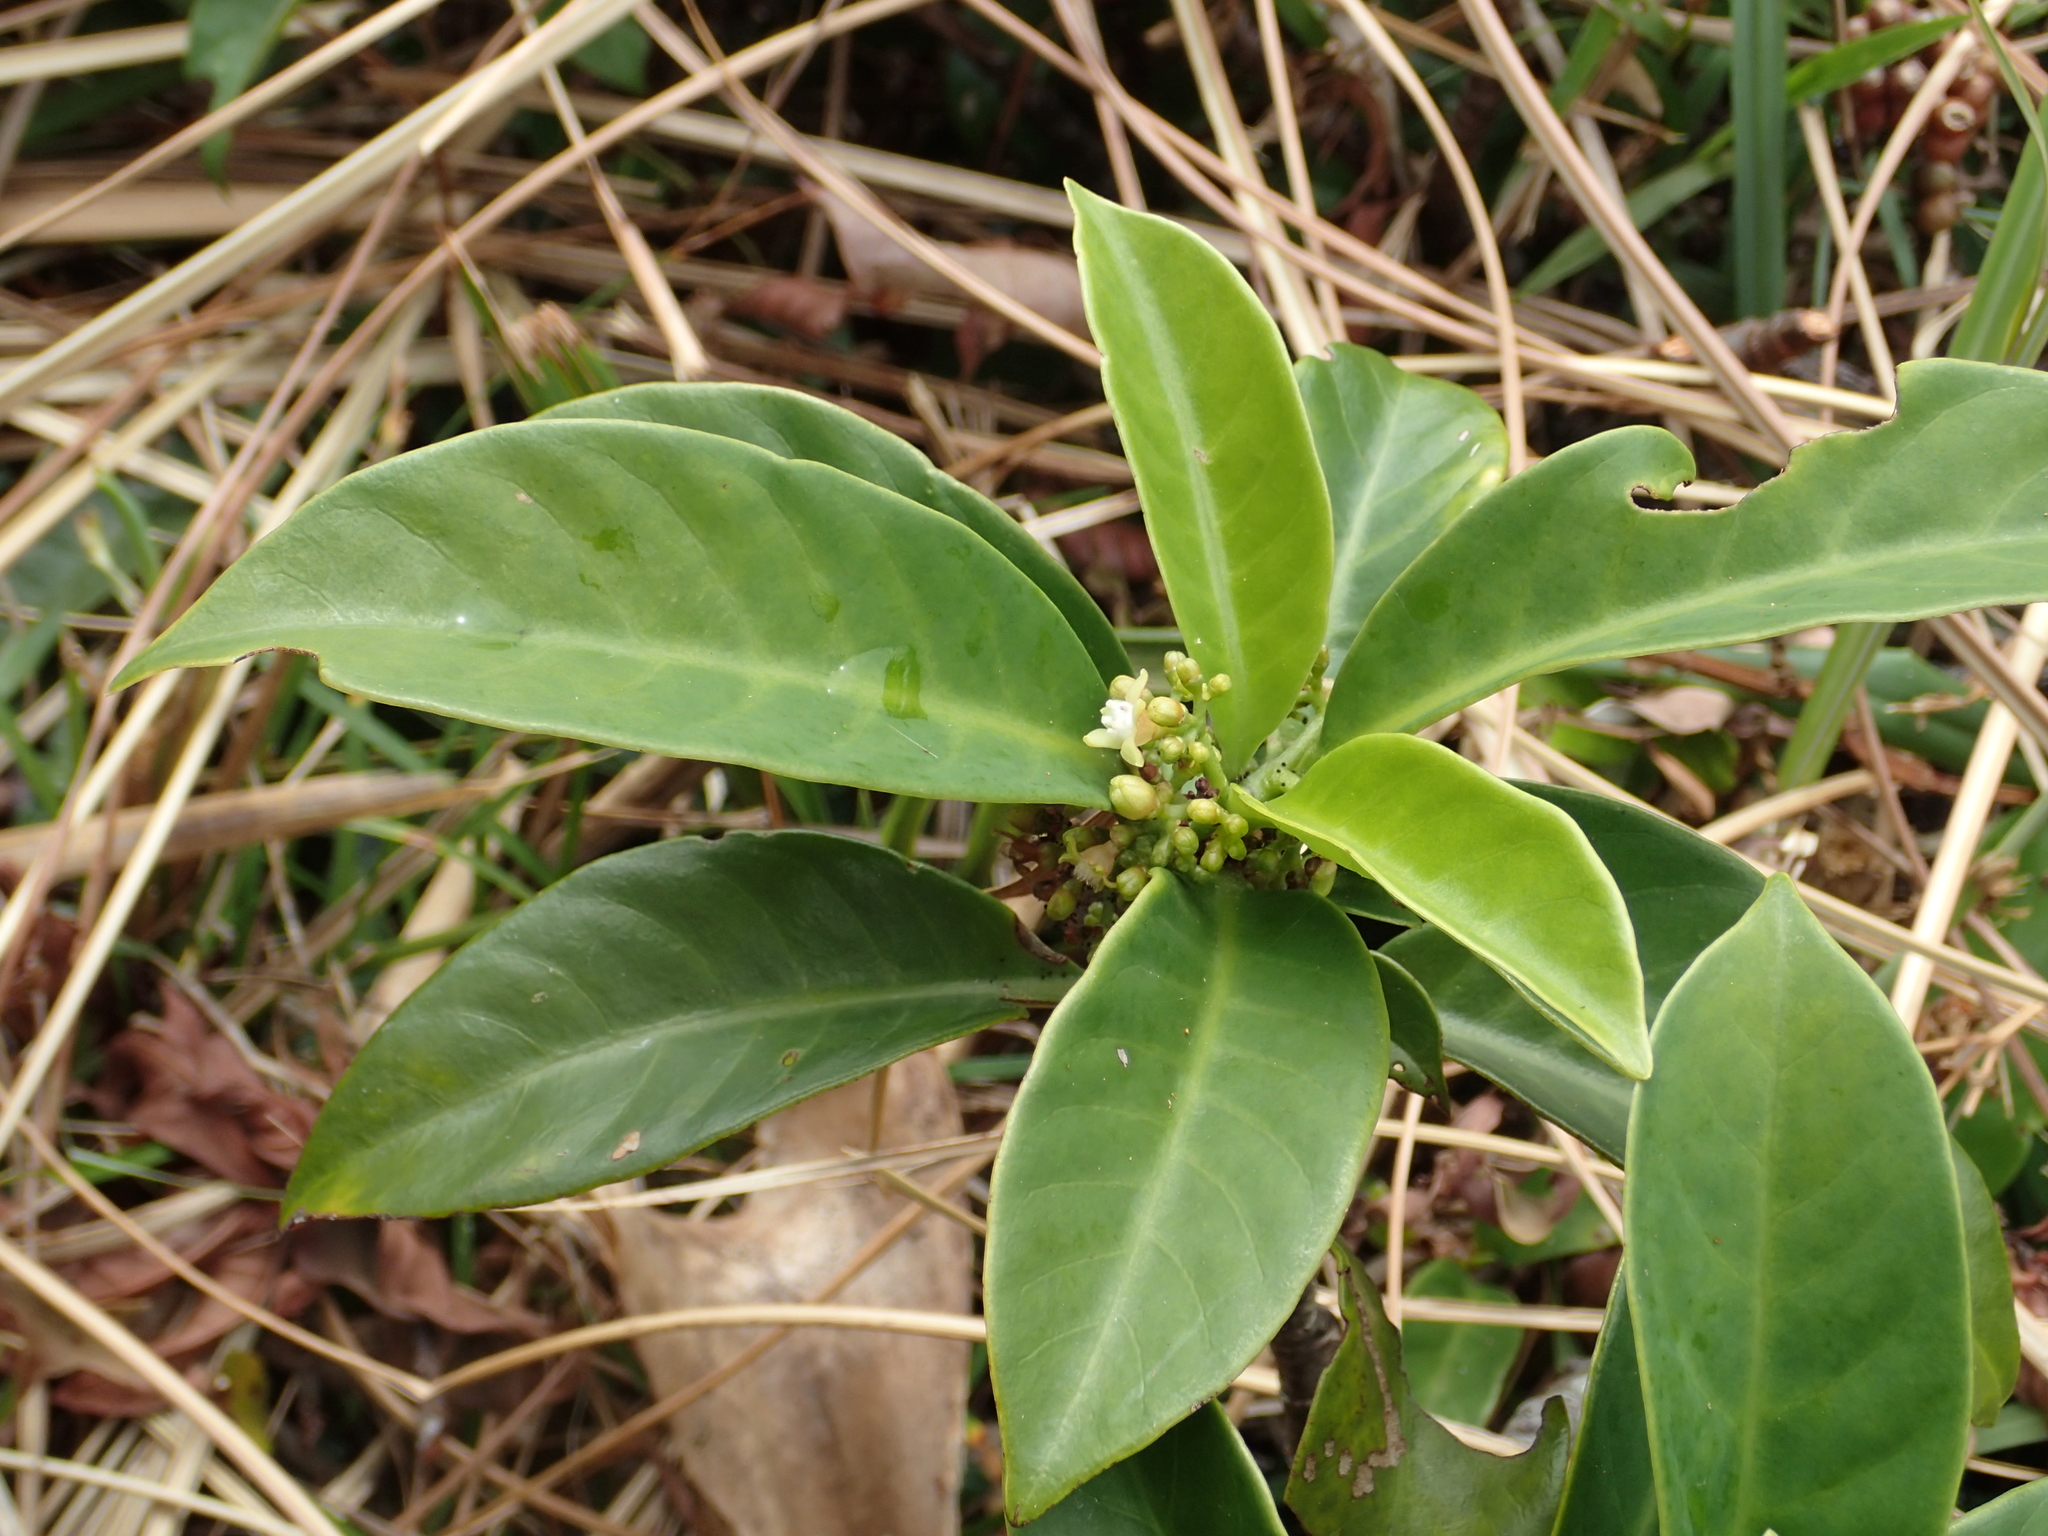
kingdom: Plantae
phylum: Tracheophyta
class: Magnoliopsida
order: Gentianales
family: Rubiaceae
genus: Psychotria
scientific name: Psychotria asiatica
